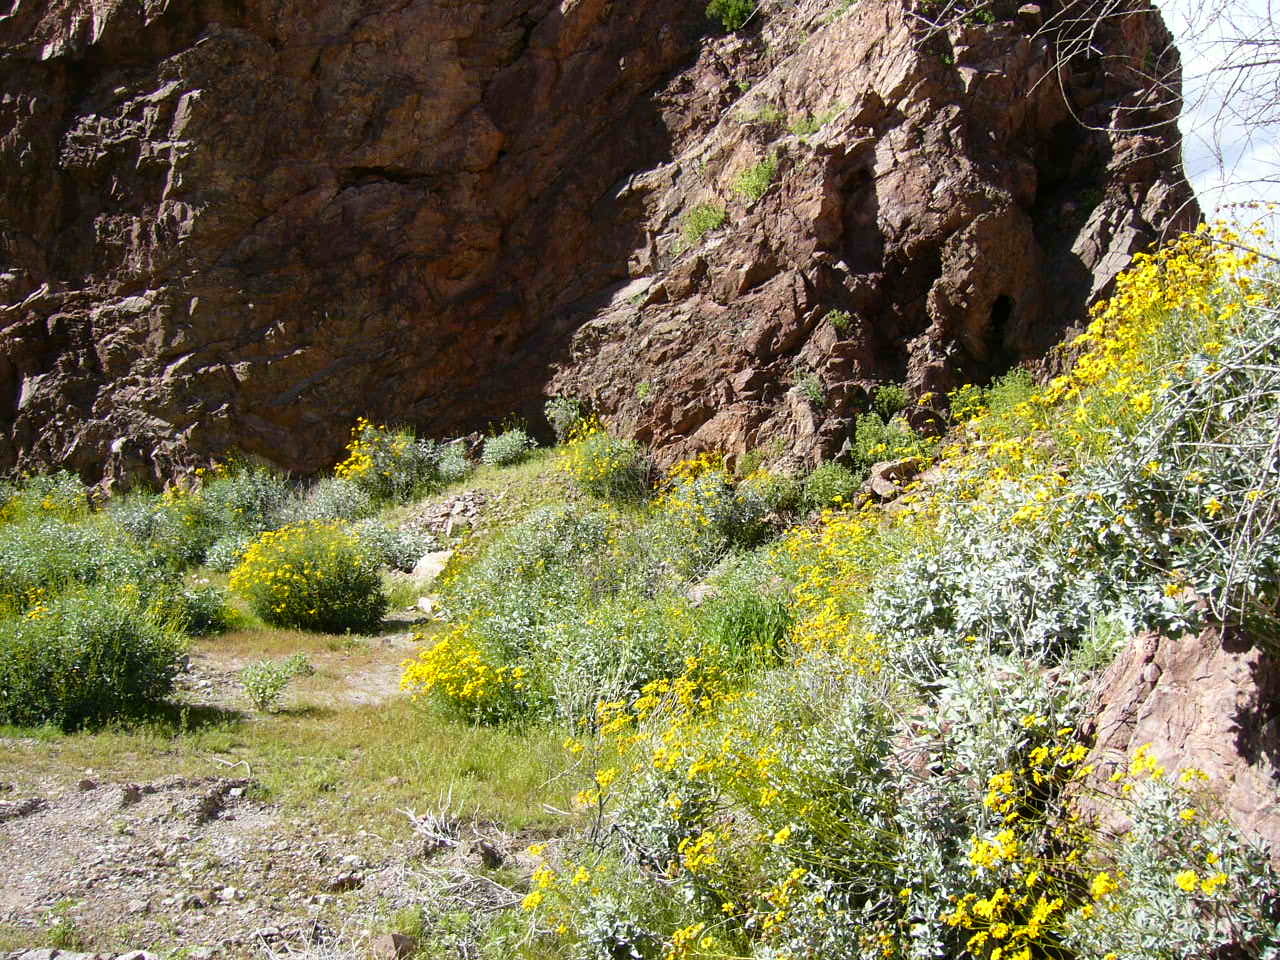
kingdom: Plantae
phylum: Tracheophyta
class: Magnoliopsida
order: Asterales
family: Asteraceae
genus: Encelia
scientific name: Encelia farinosa
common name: Brittlebush
